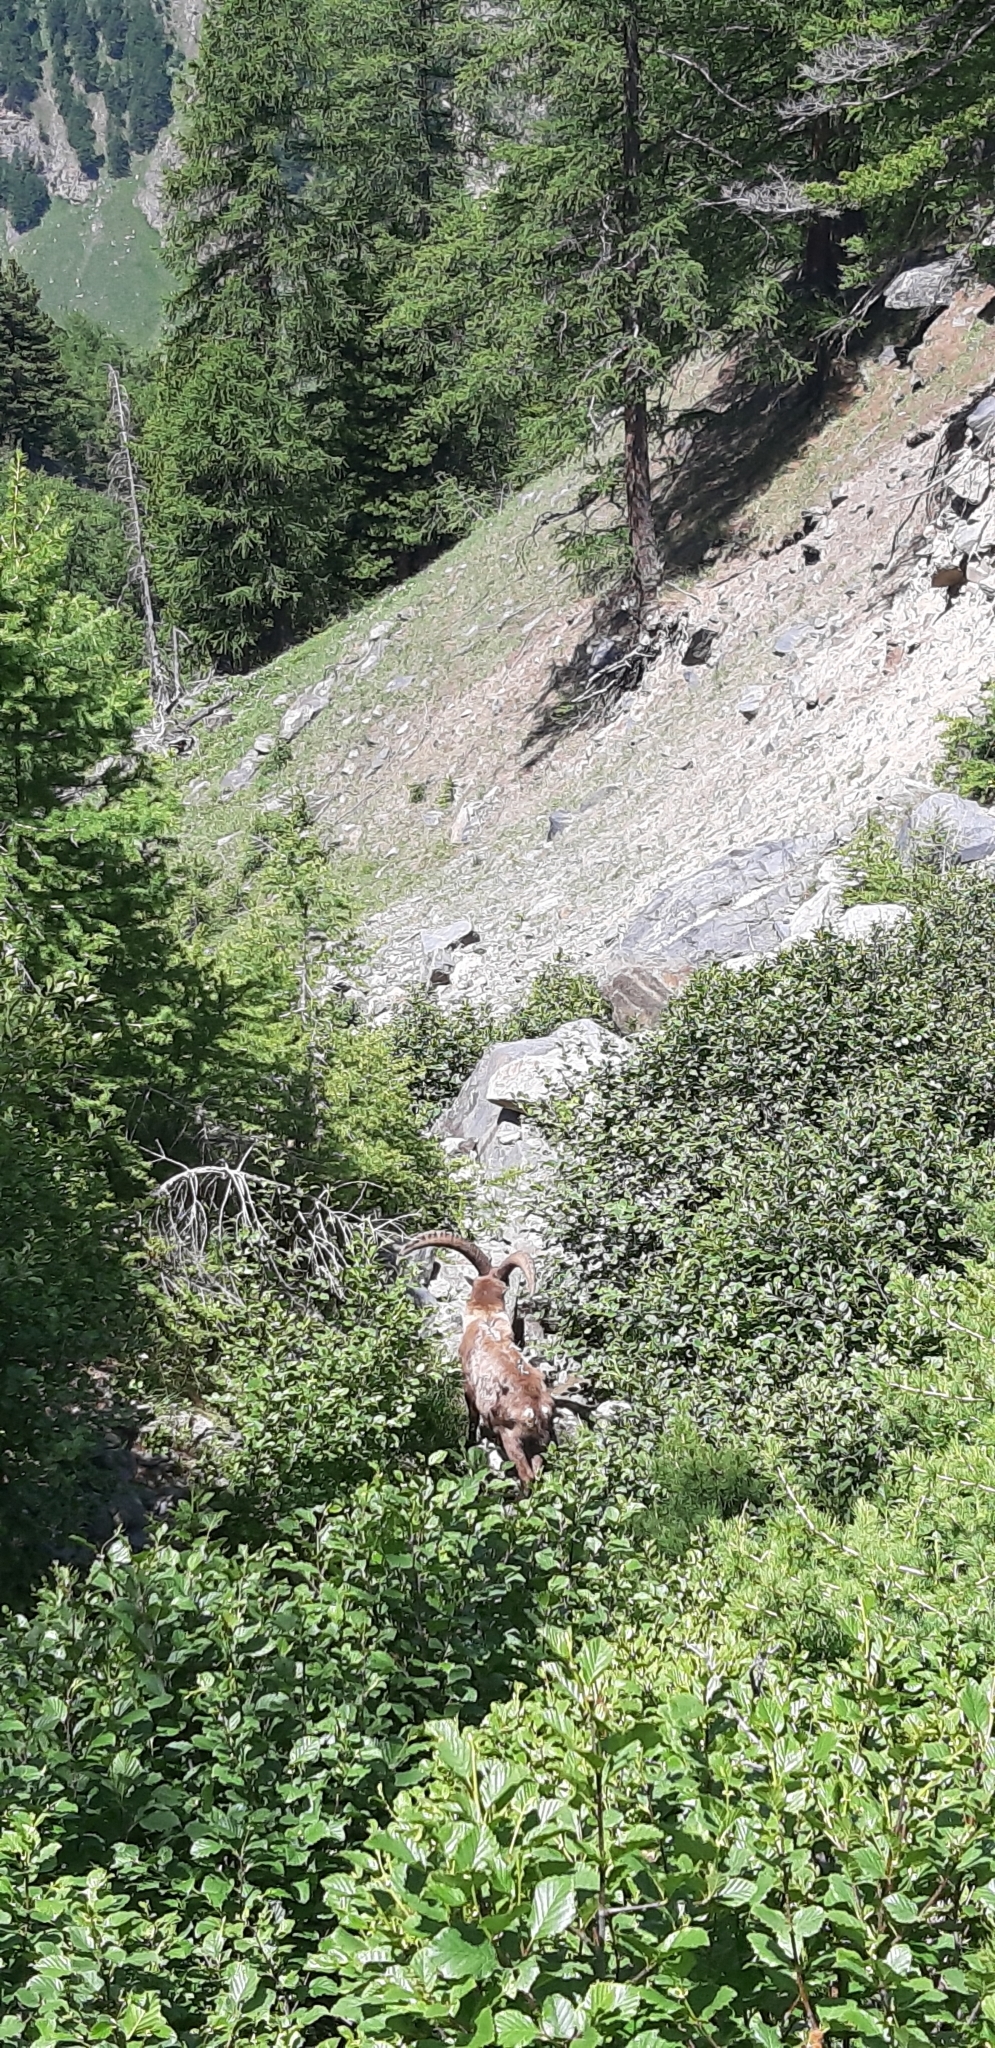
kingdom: Animalia
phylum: Chordata
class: Mammalia
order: Artiodactyla
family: Bovidae
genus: Capra
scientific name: Capra ibex
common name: Alpine ibex
